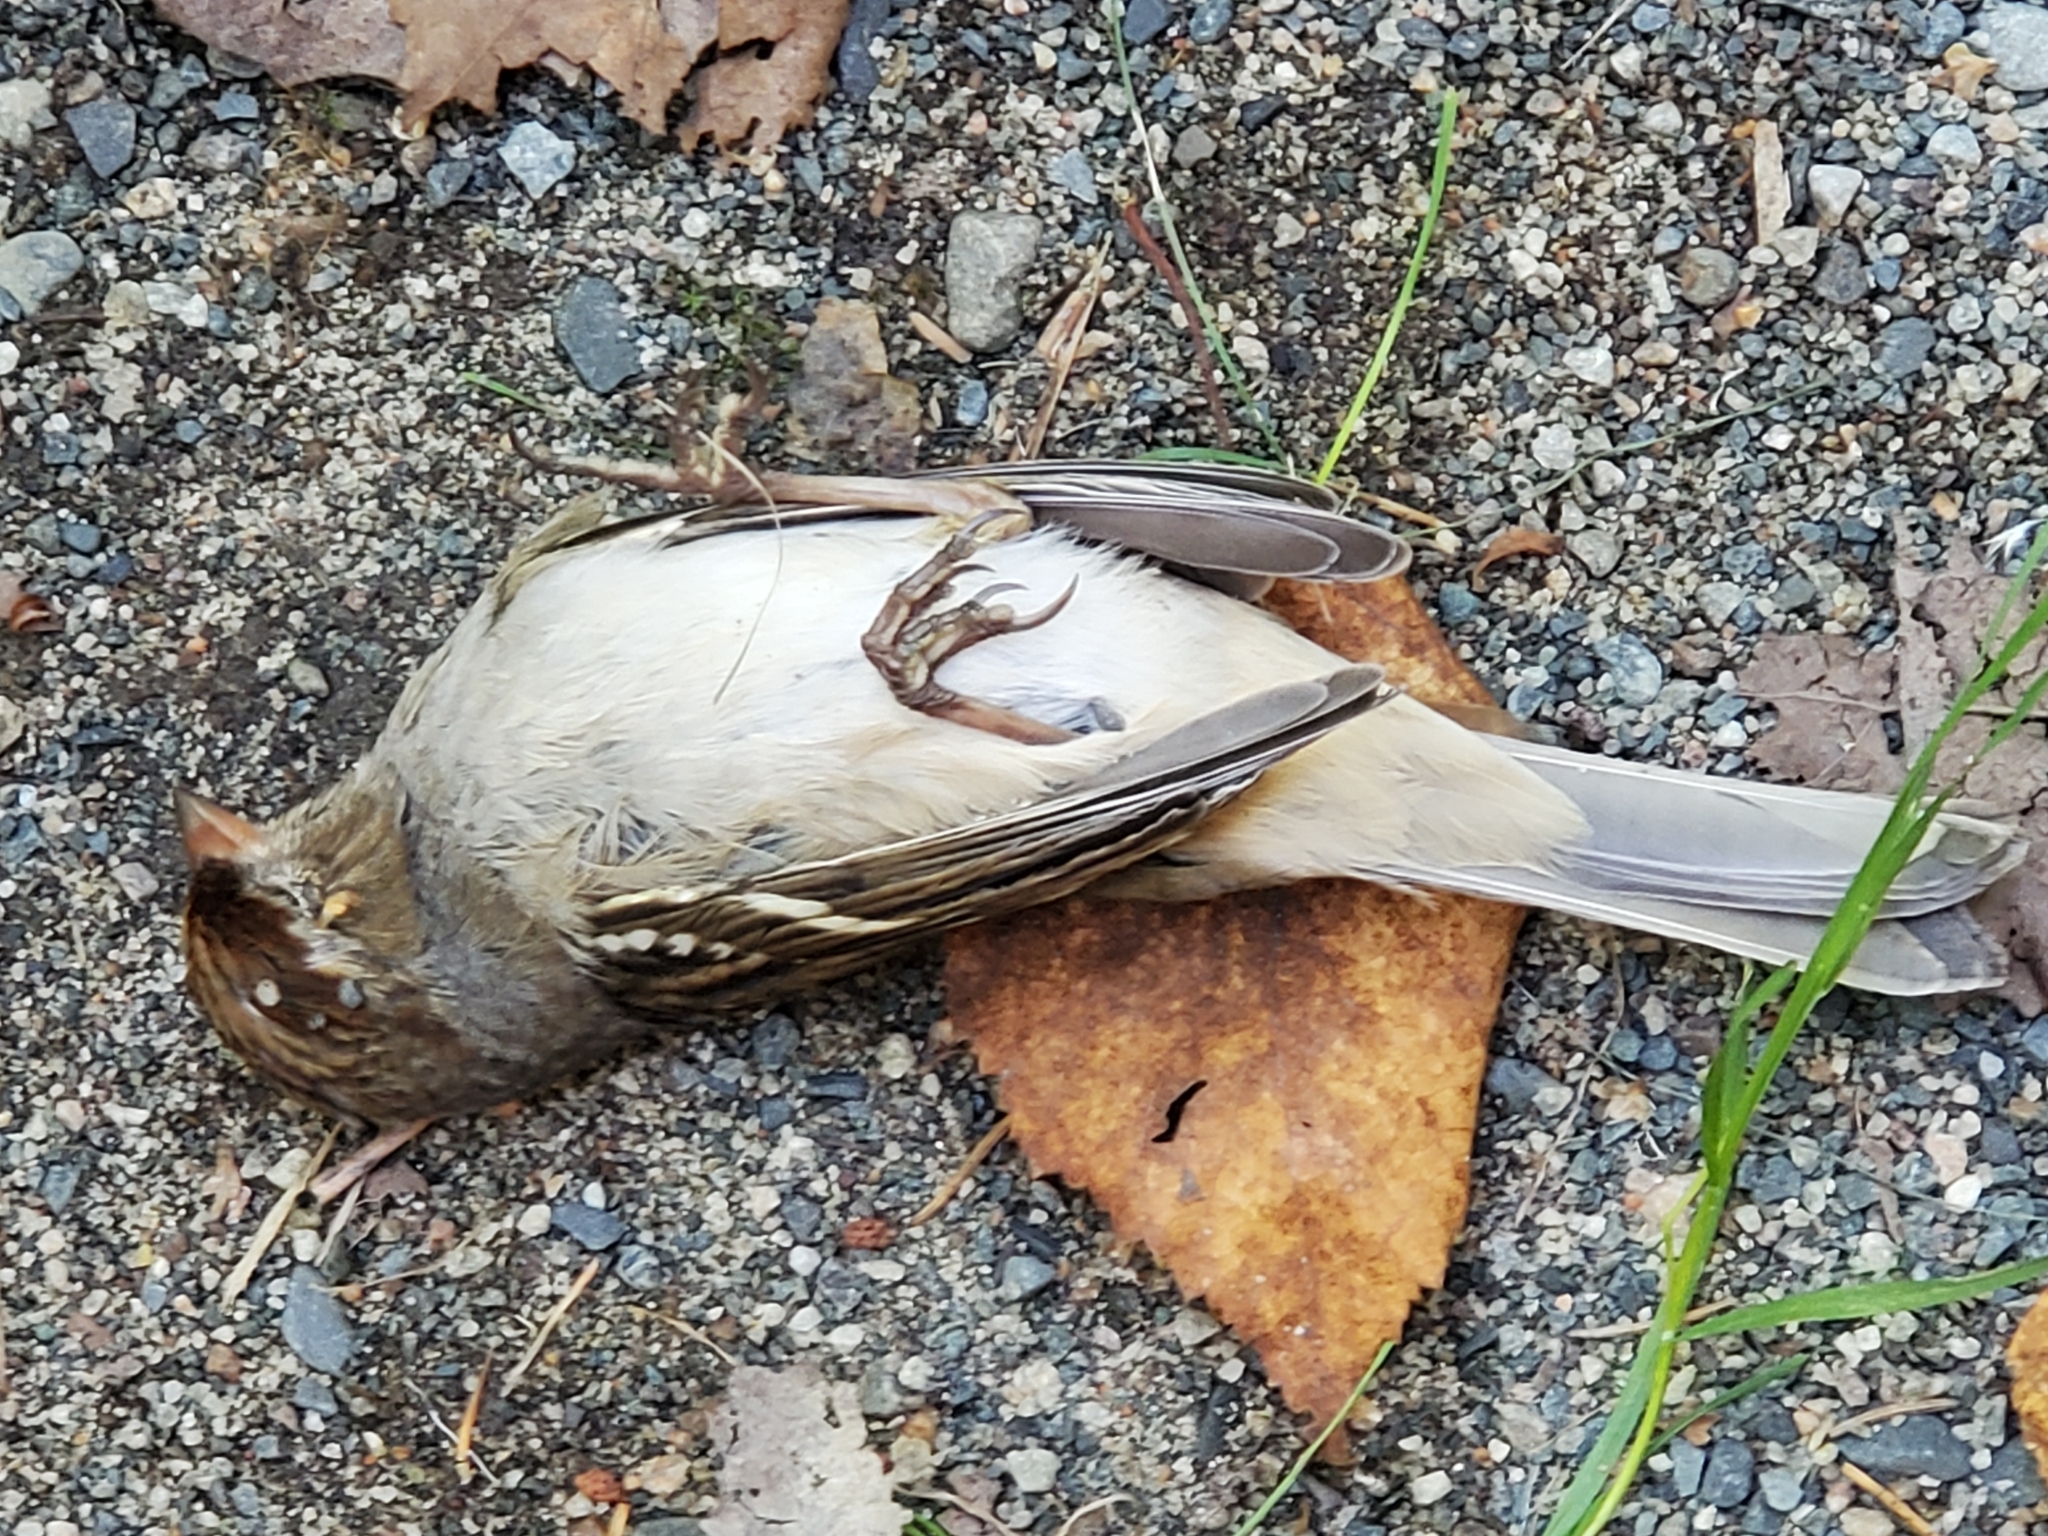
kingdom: Animalia
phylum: Chordata
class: Aves
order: Passeriformes
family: Passerellidae
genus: Zonotrichia
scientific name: Zonotrichia leucophrys
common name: White-crowned sparrow
